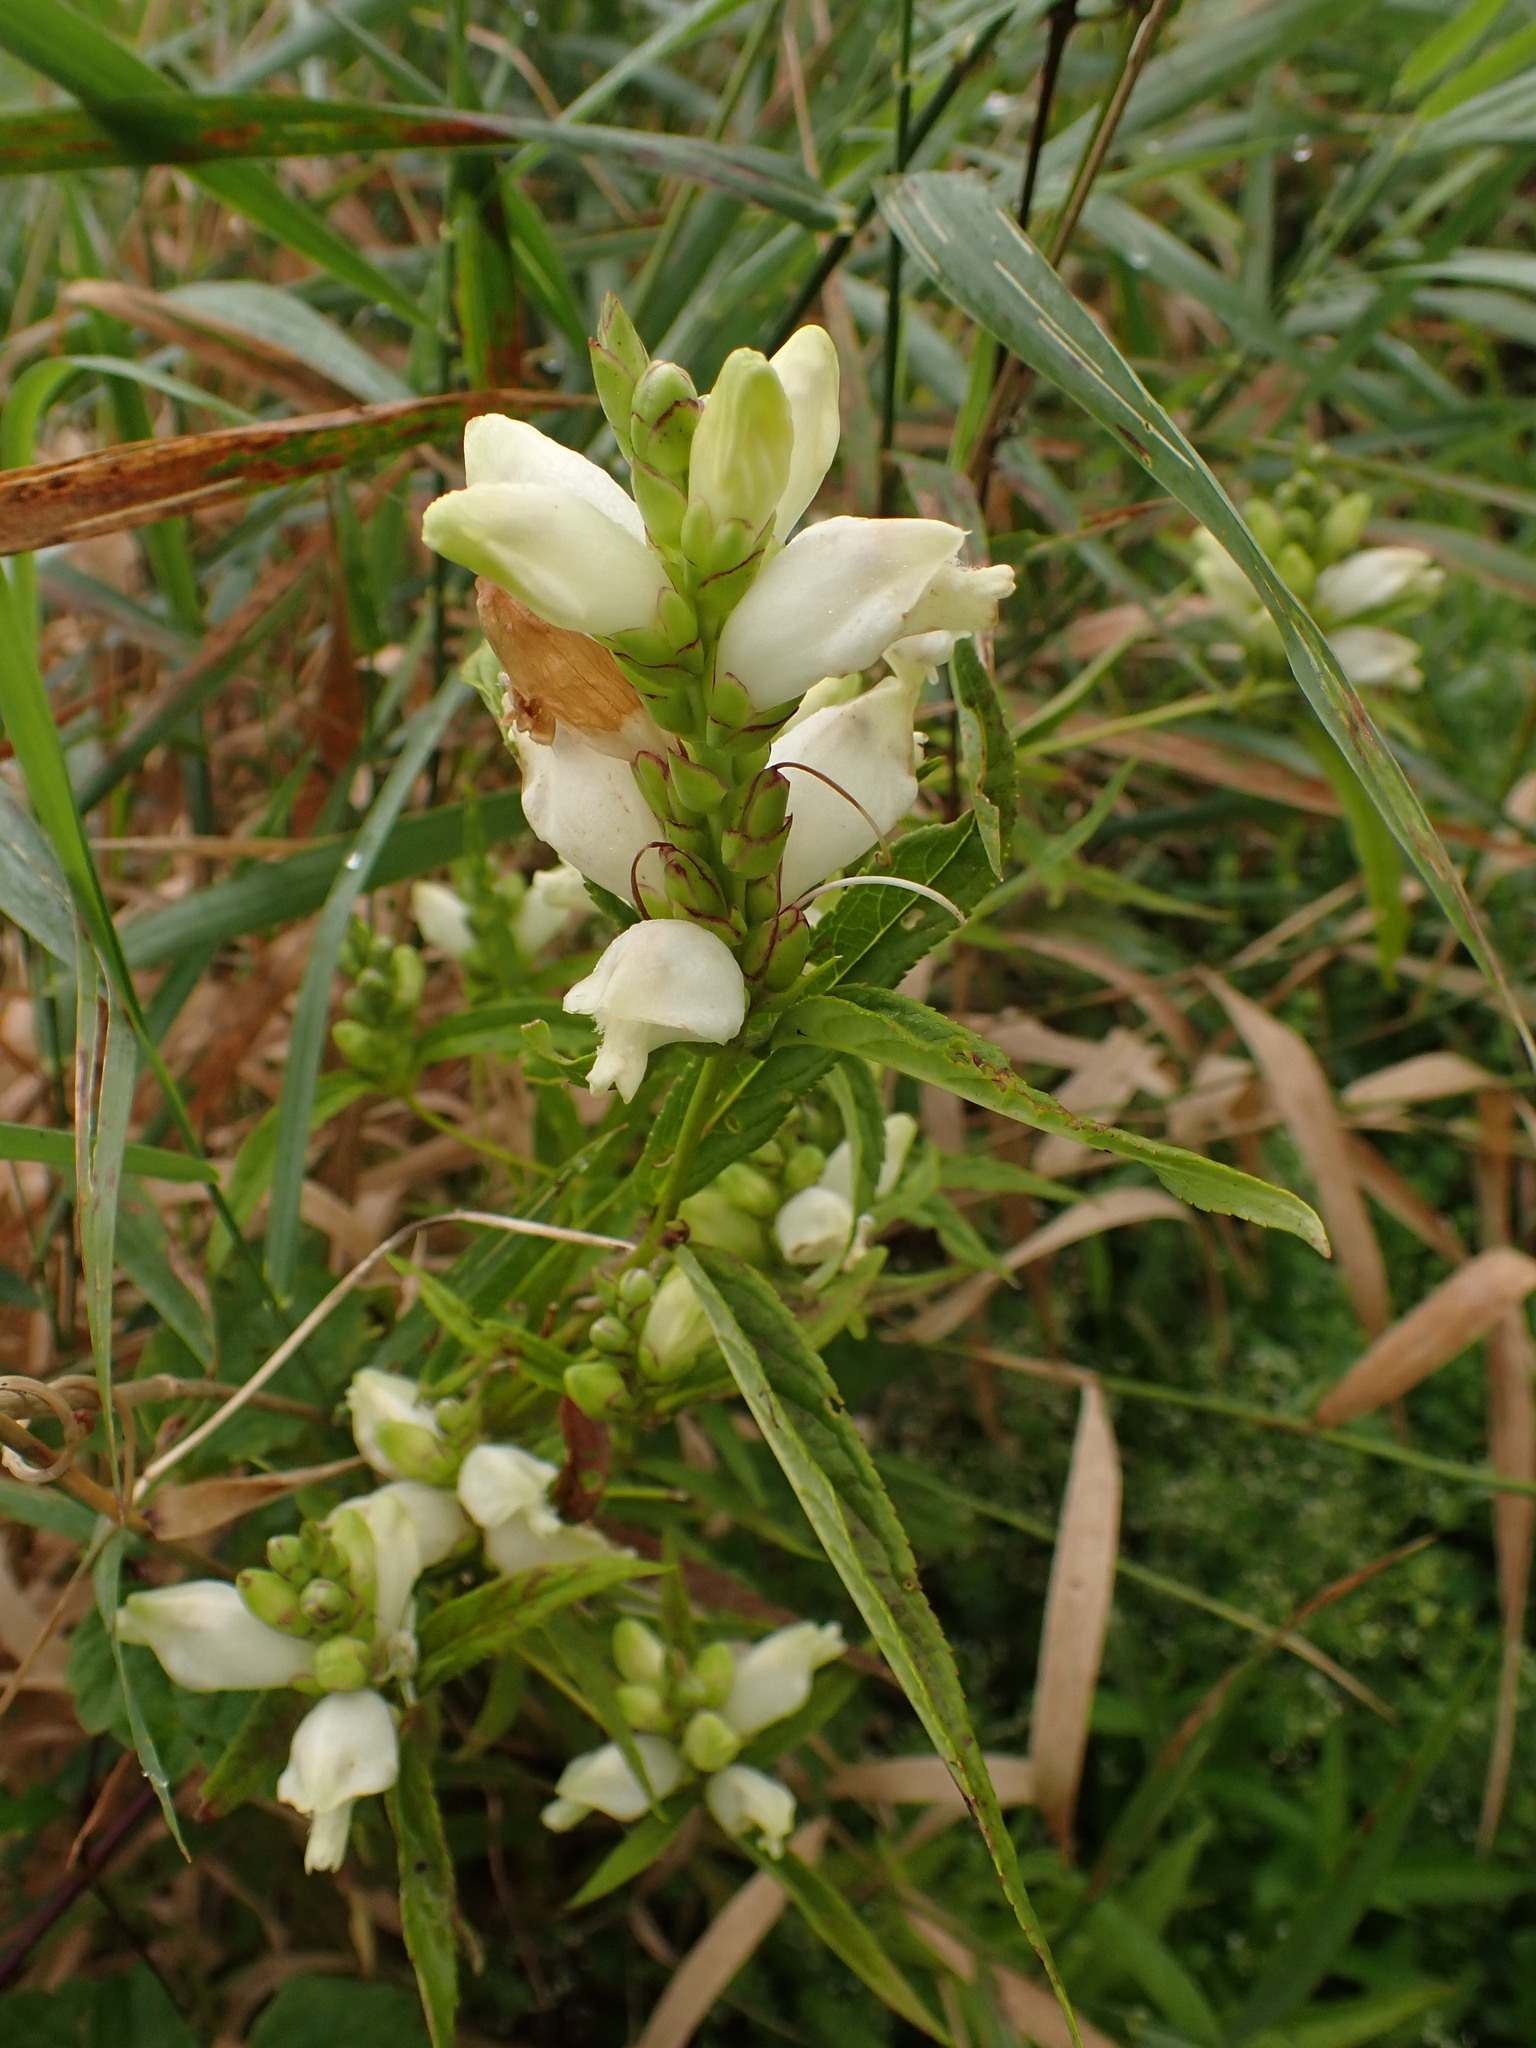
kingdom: Plantae
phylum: Tracheophyta
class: Magnoliopsida
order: Lamiales
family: Plantaginaceae
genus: Chelone
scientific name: Chelone glabra
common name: Snakehead
